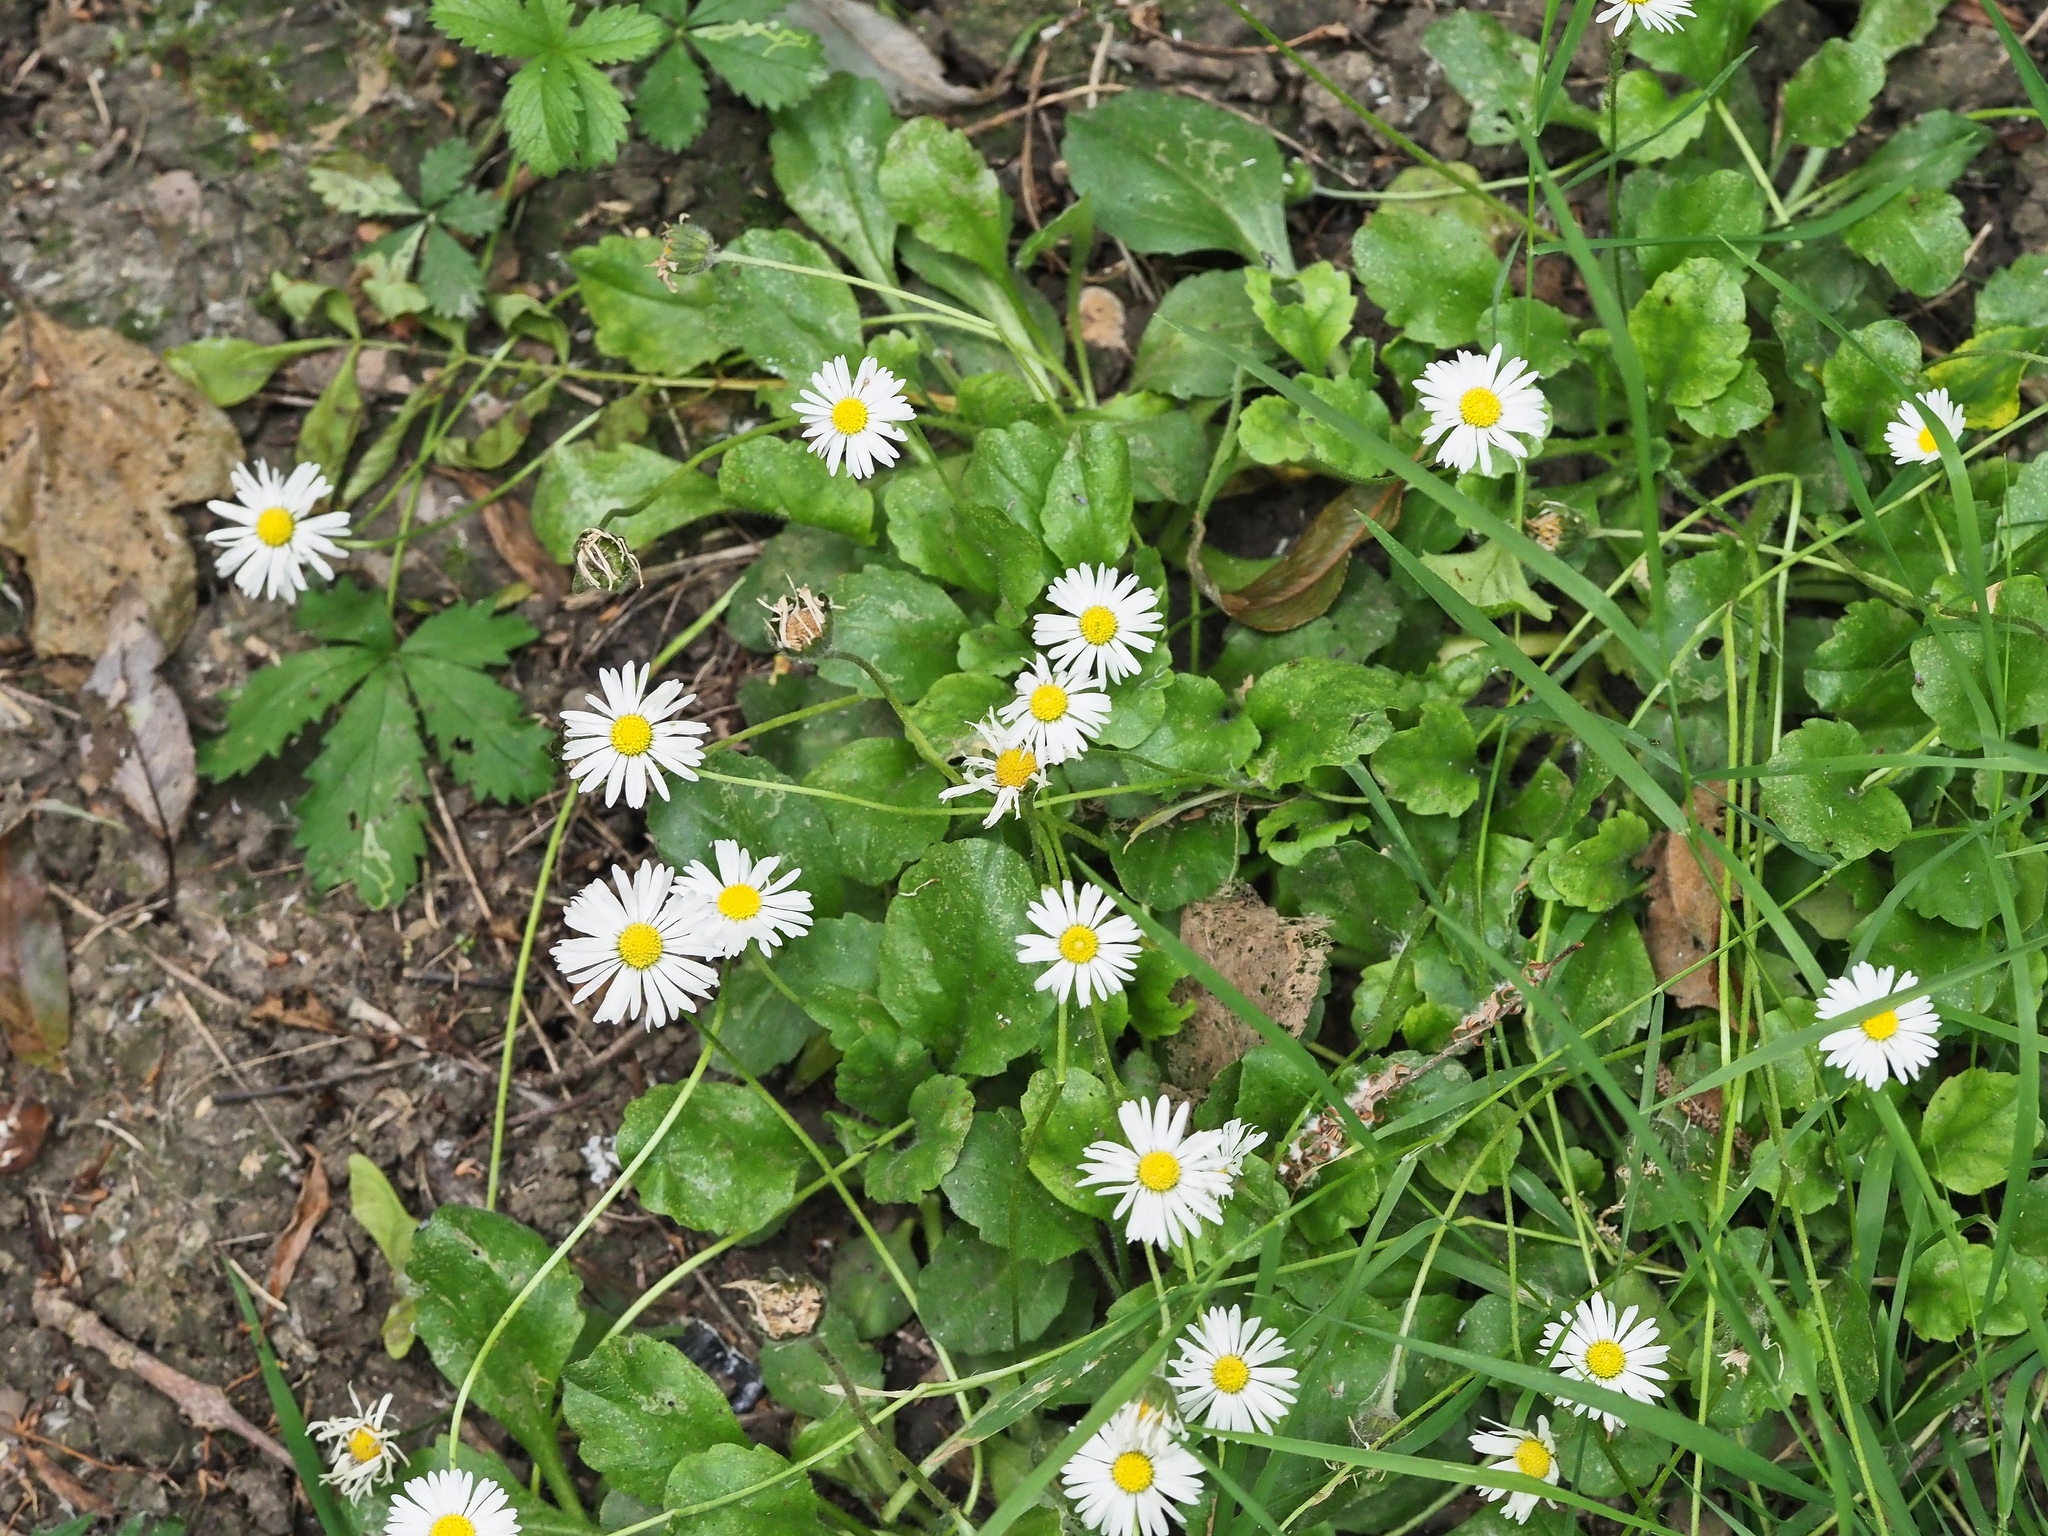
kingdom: Plantae
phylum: Tracheophyta
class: Magnoliopsida
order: Asterales
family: Asteraceae
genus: Bellis
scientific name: Bellis perennis
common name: Lawndaisy
